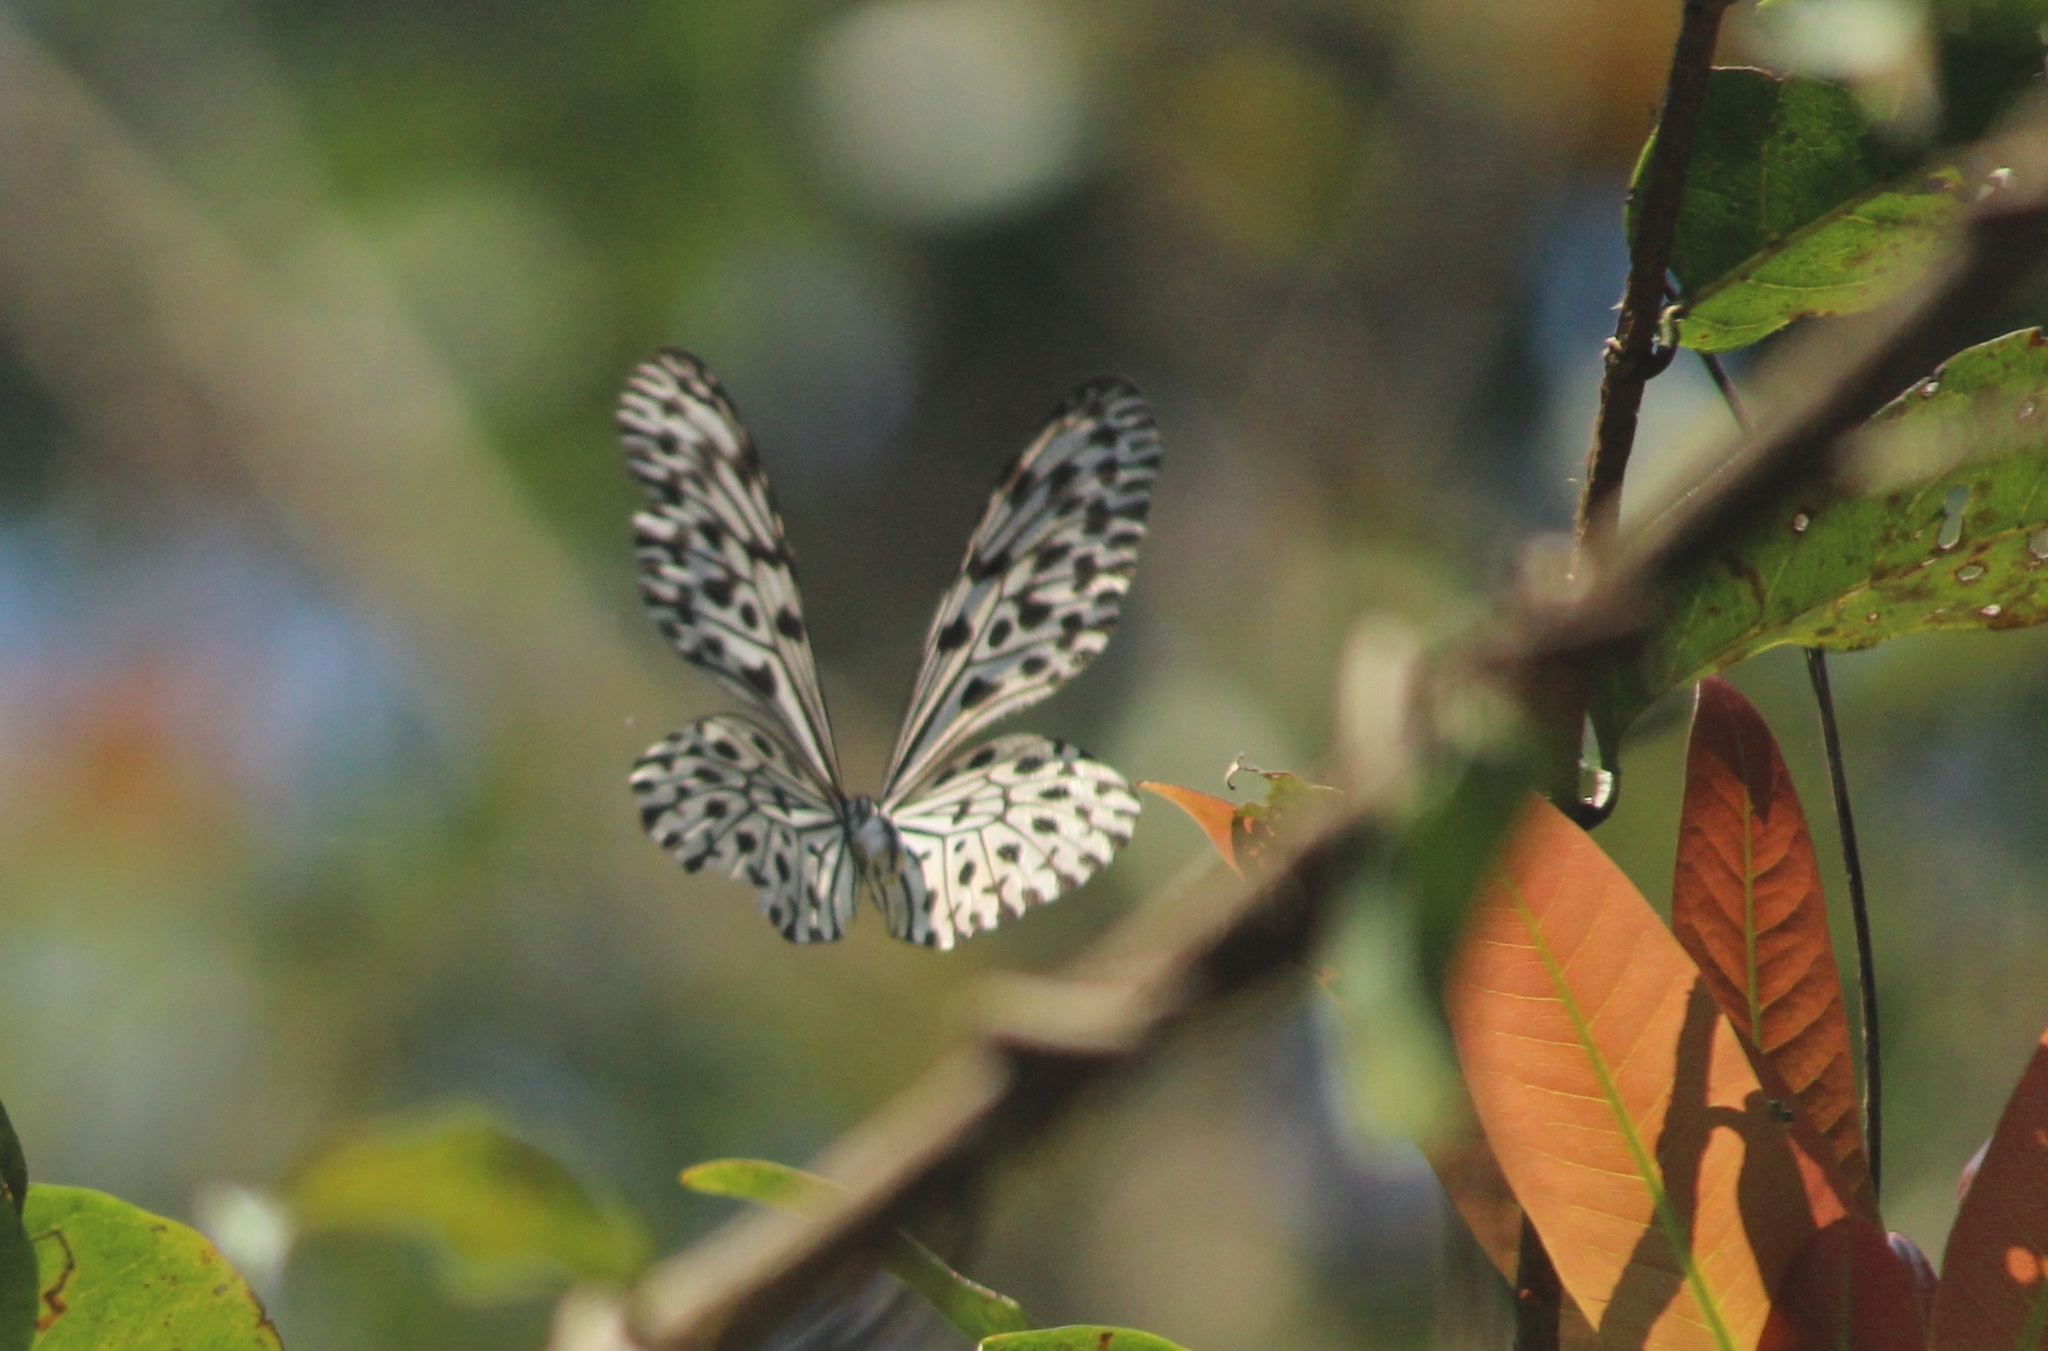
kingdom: Animalia
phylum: Arthropoda
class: Insecta
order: Lepidoptera
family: Nymphalidae
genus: Idea
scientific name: Idea malabarica
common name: Malabar tree-nymph
